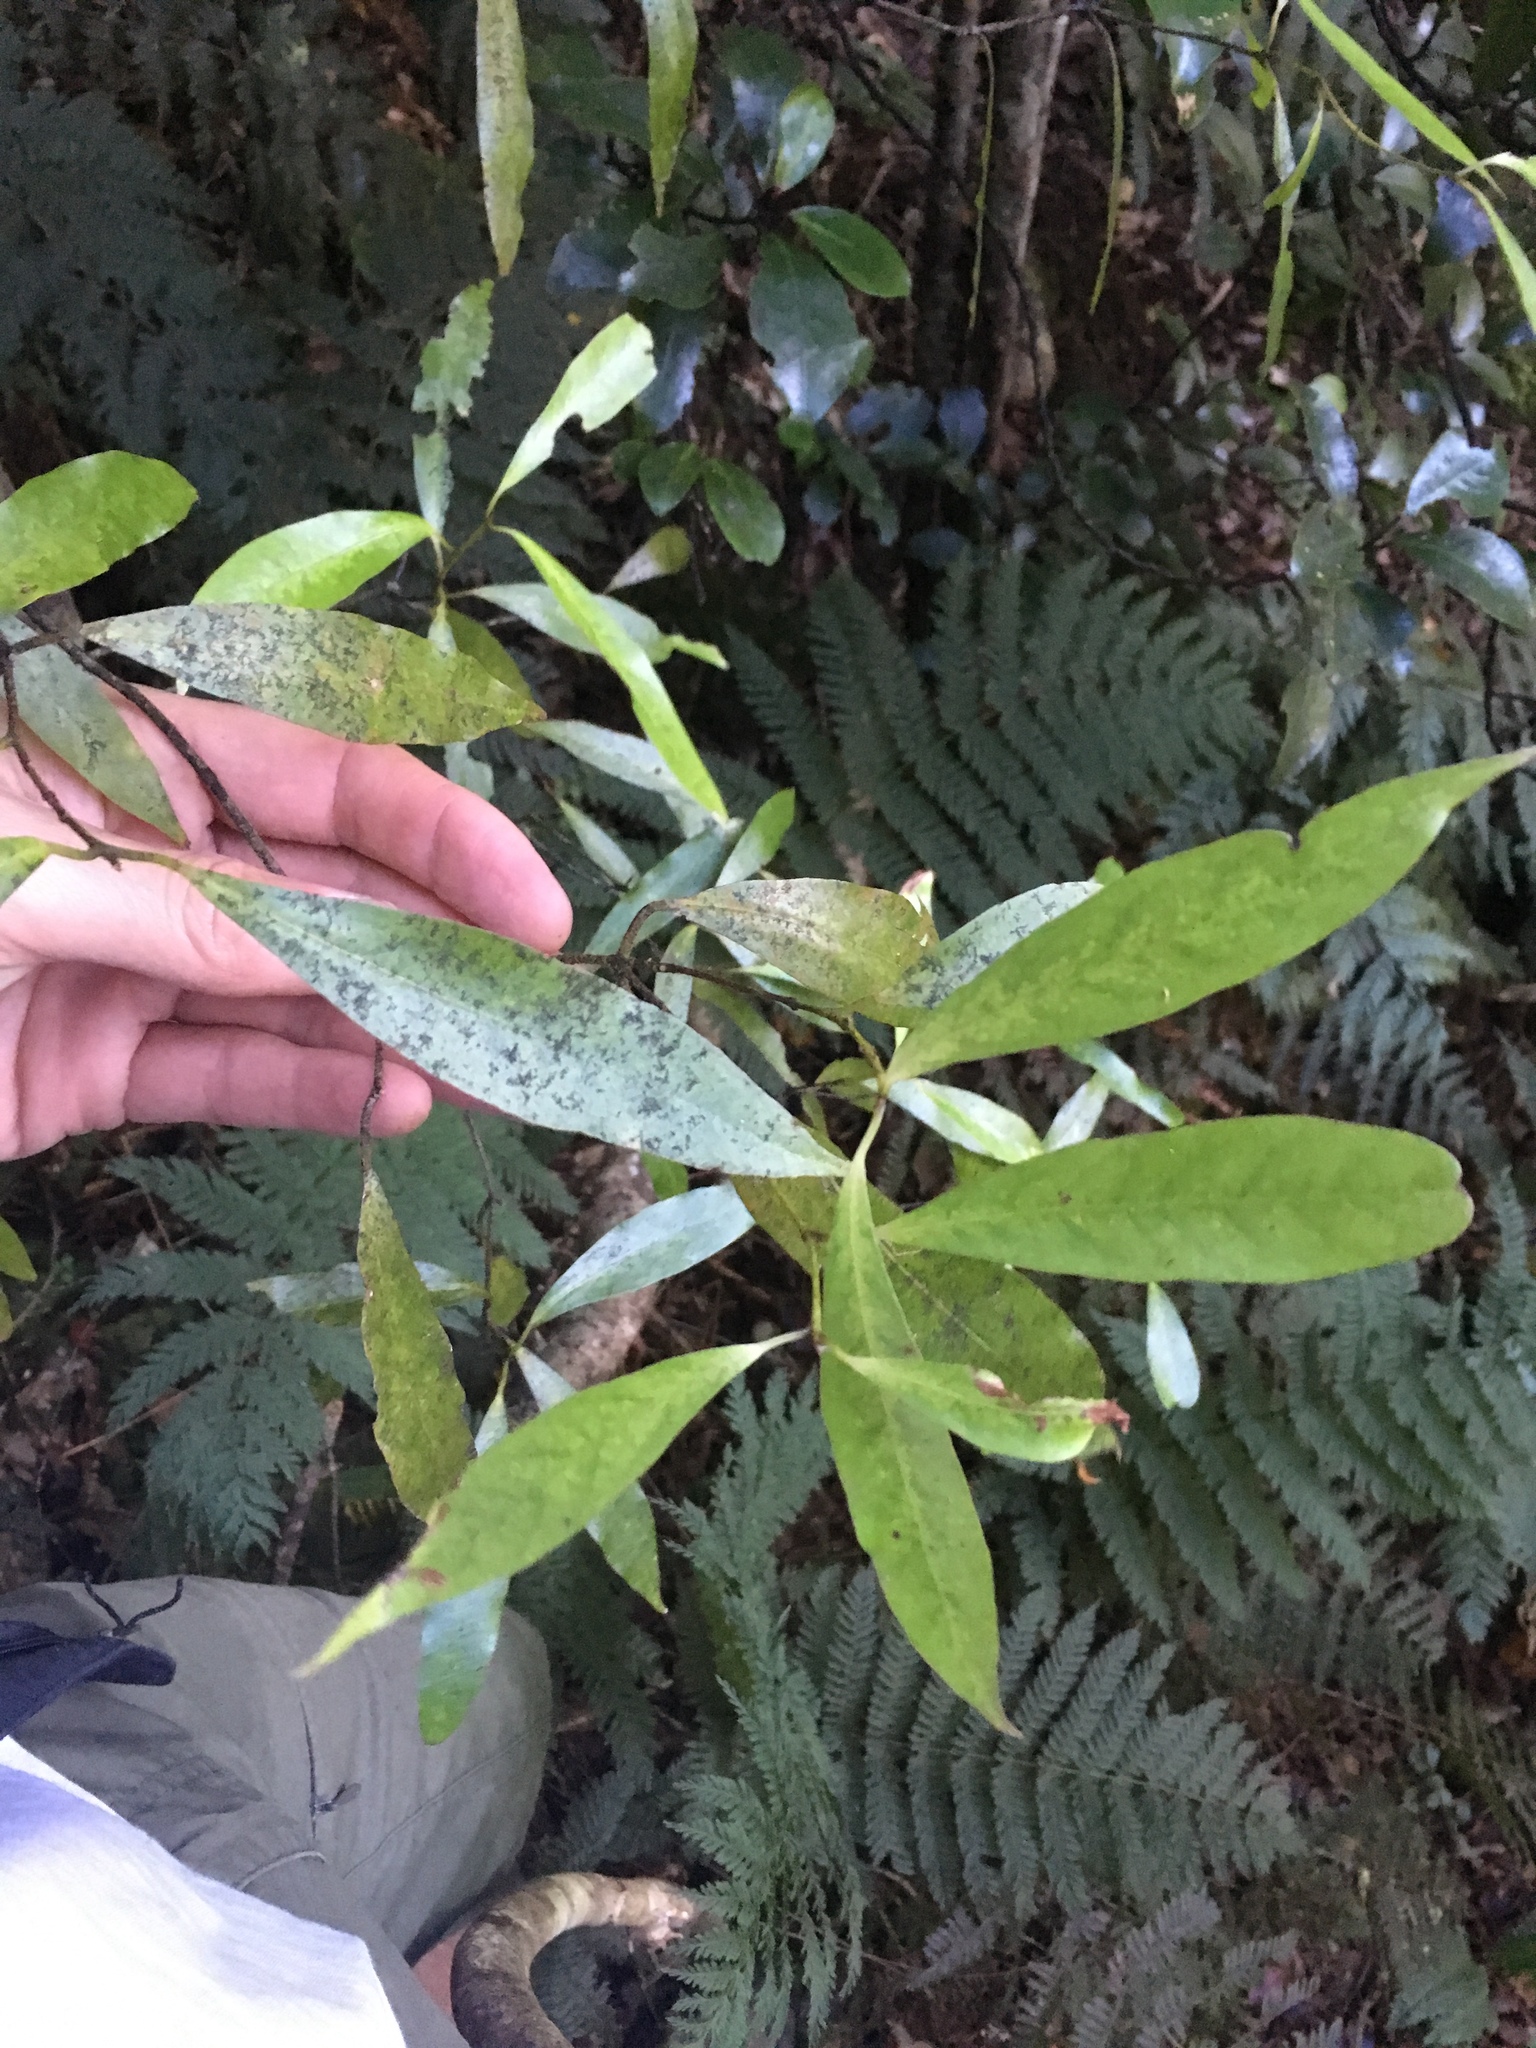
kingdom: Plantae
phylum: Tracheophyta
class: Magnoliopsida
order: Laurales
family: Lauraceae
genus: Beilschmiedia
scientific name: Beilschmiedia tawa
